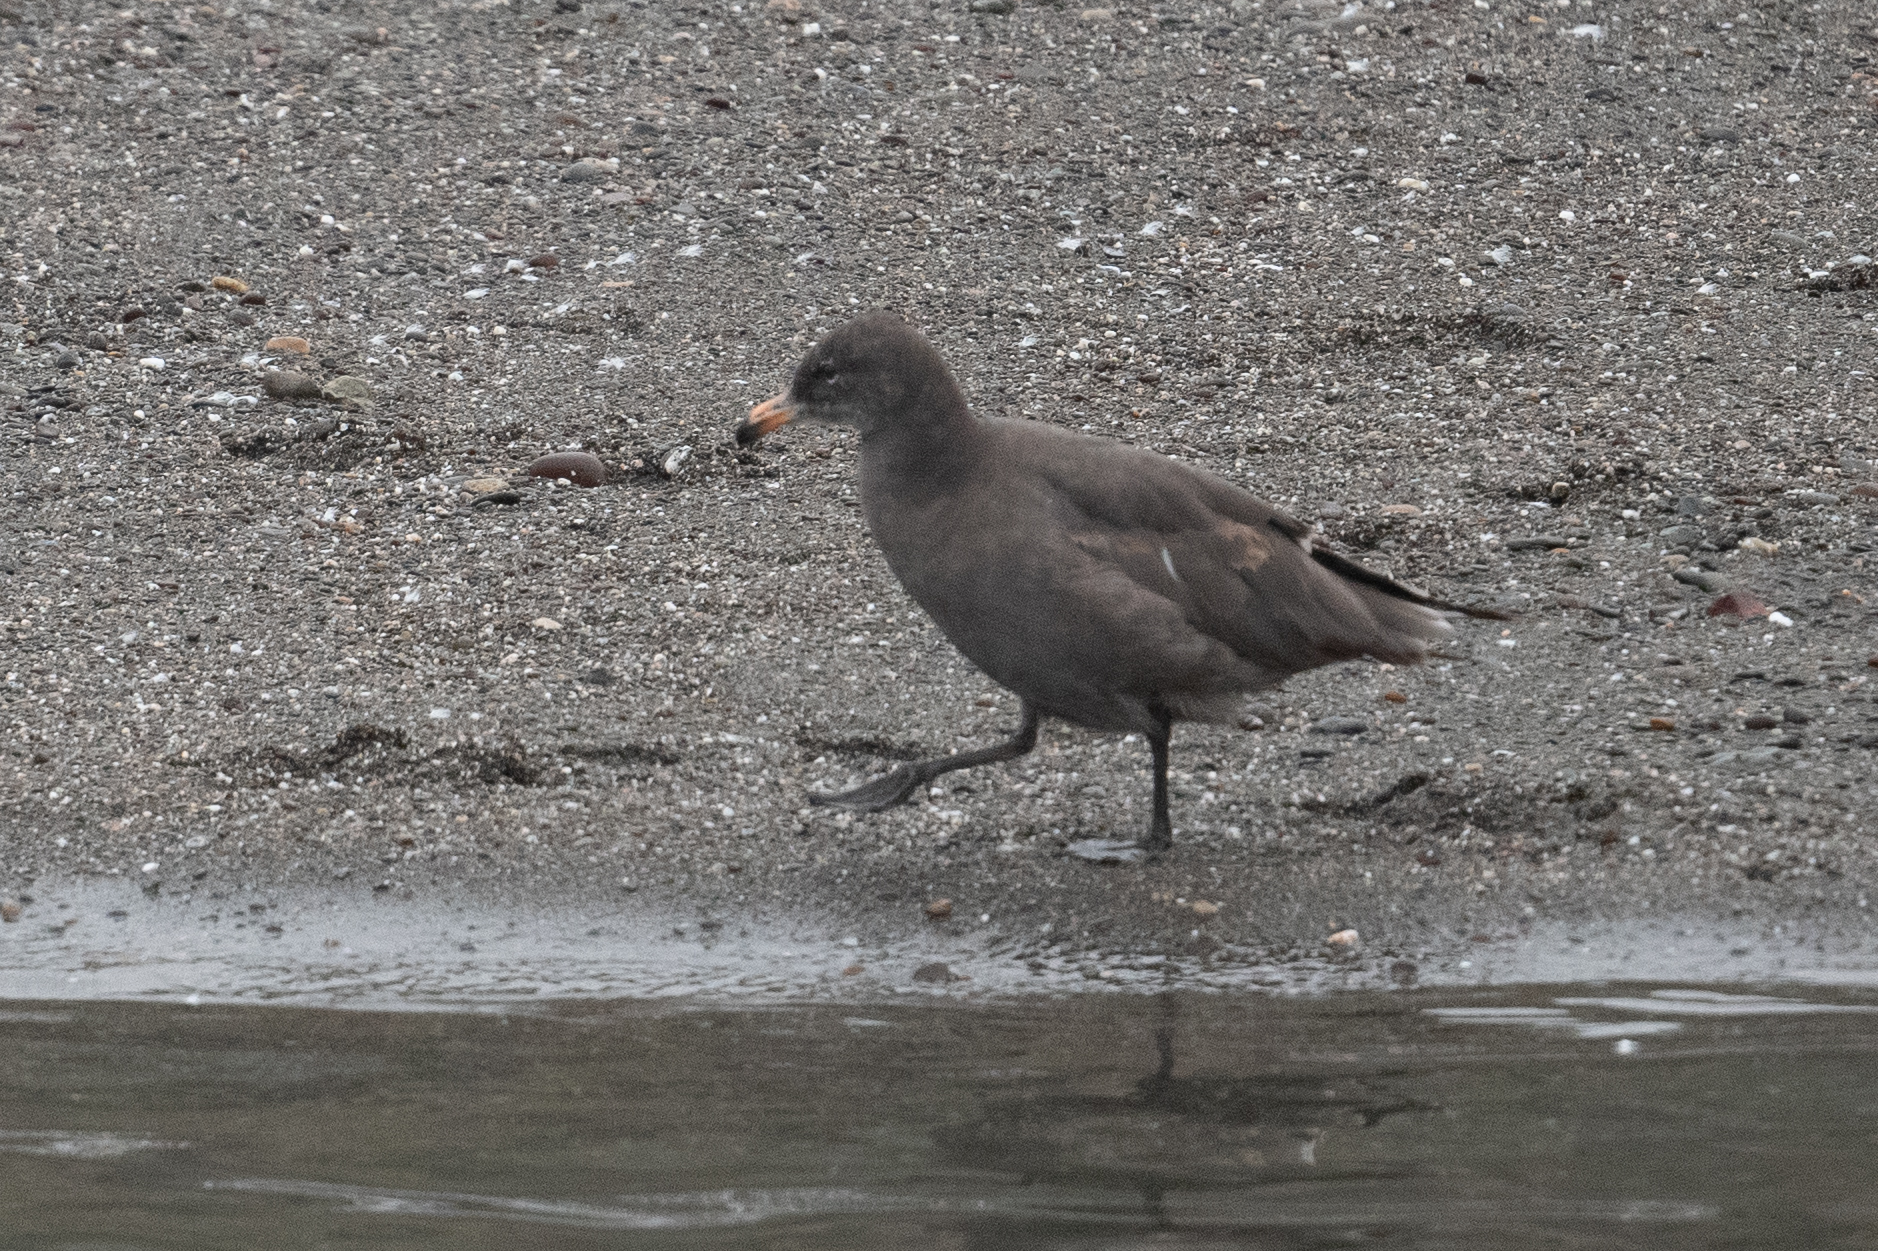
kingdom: Animalia
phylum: Chordata
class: Aves
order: Charadriiformes
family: Laridae
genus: Larus
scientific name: Larus heermanni
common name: Heermann's gull
